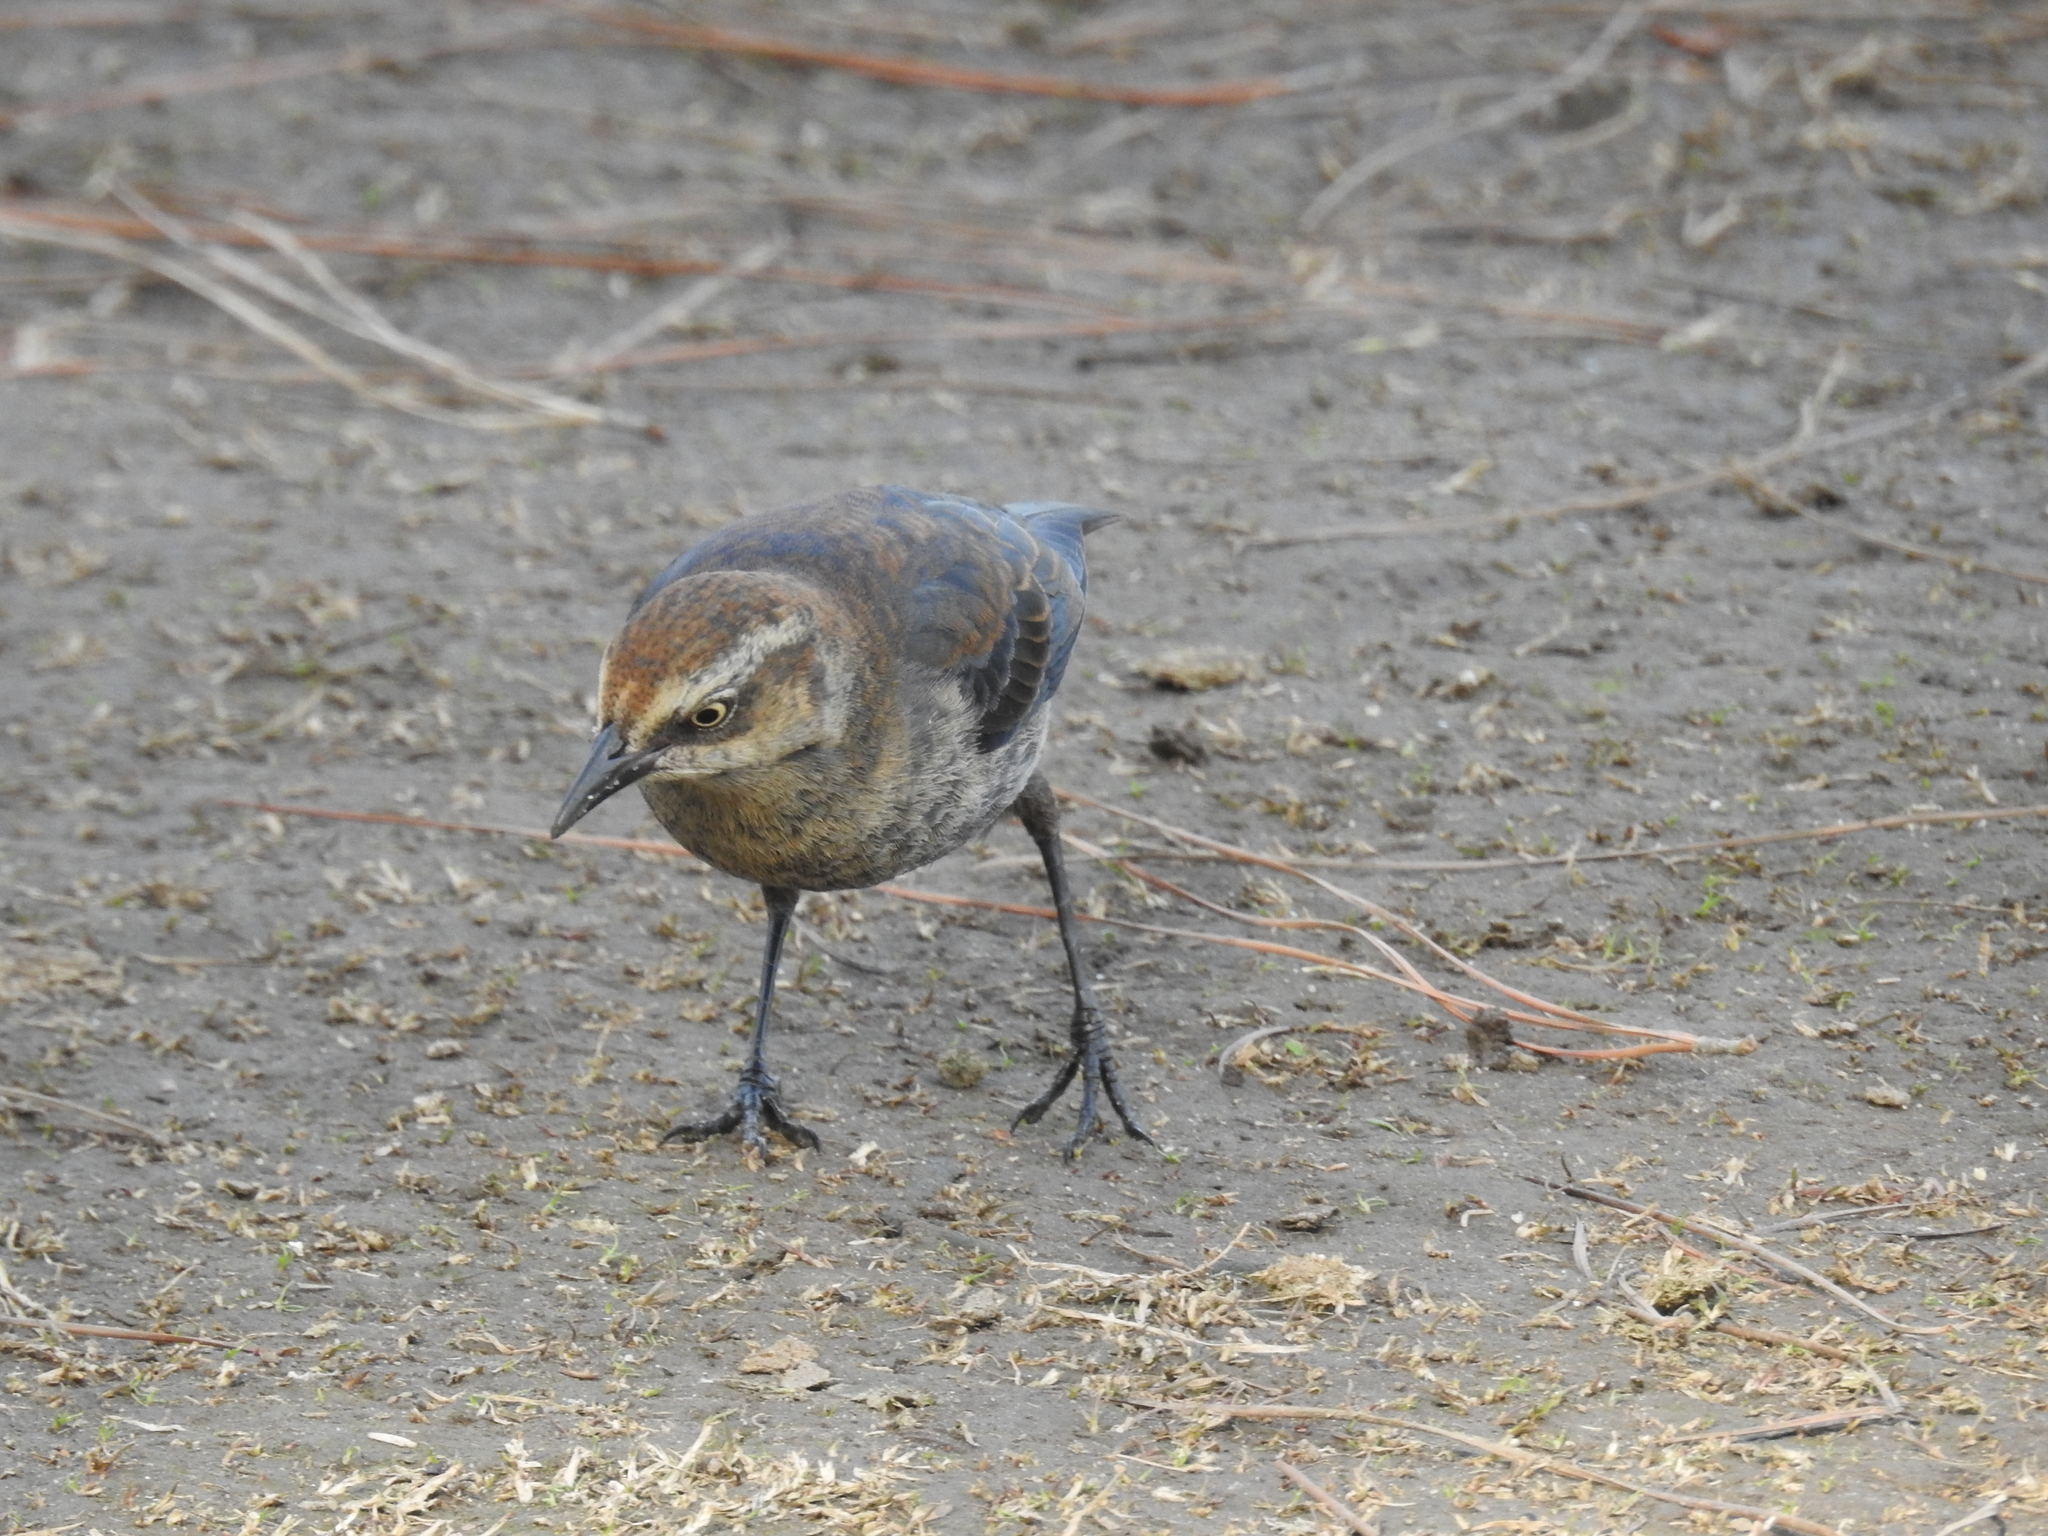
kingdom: Animalia
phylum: Chordata
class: Aves
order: Passeriformes
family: Icteridae
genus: Euphagus
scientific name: Euphagus carolinus
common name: Rusty blackbird
